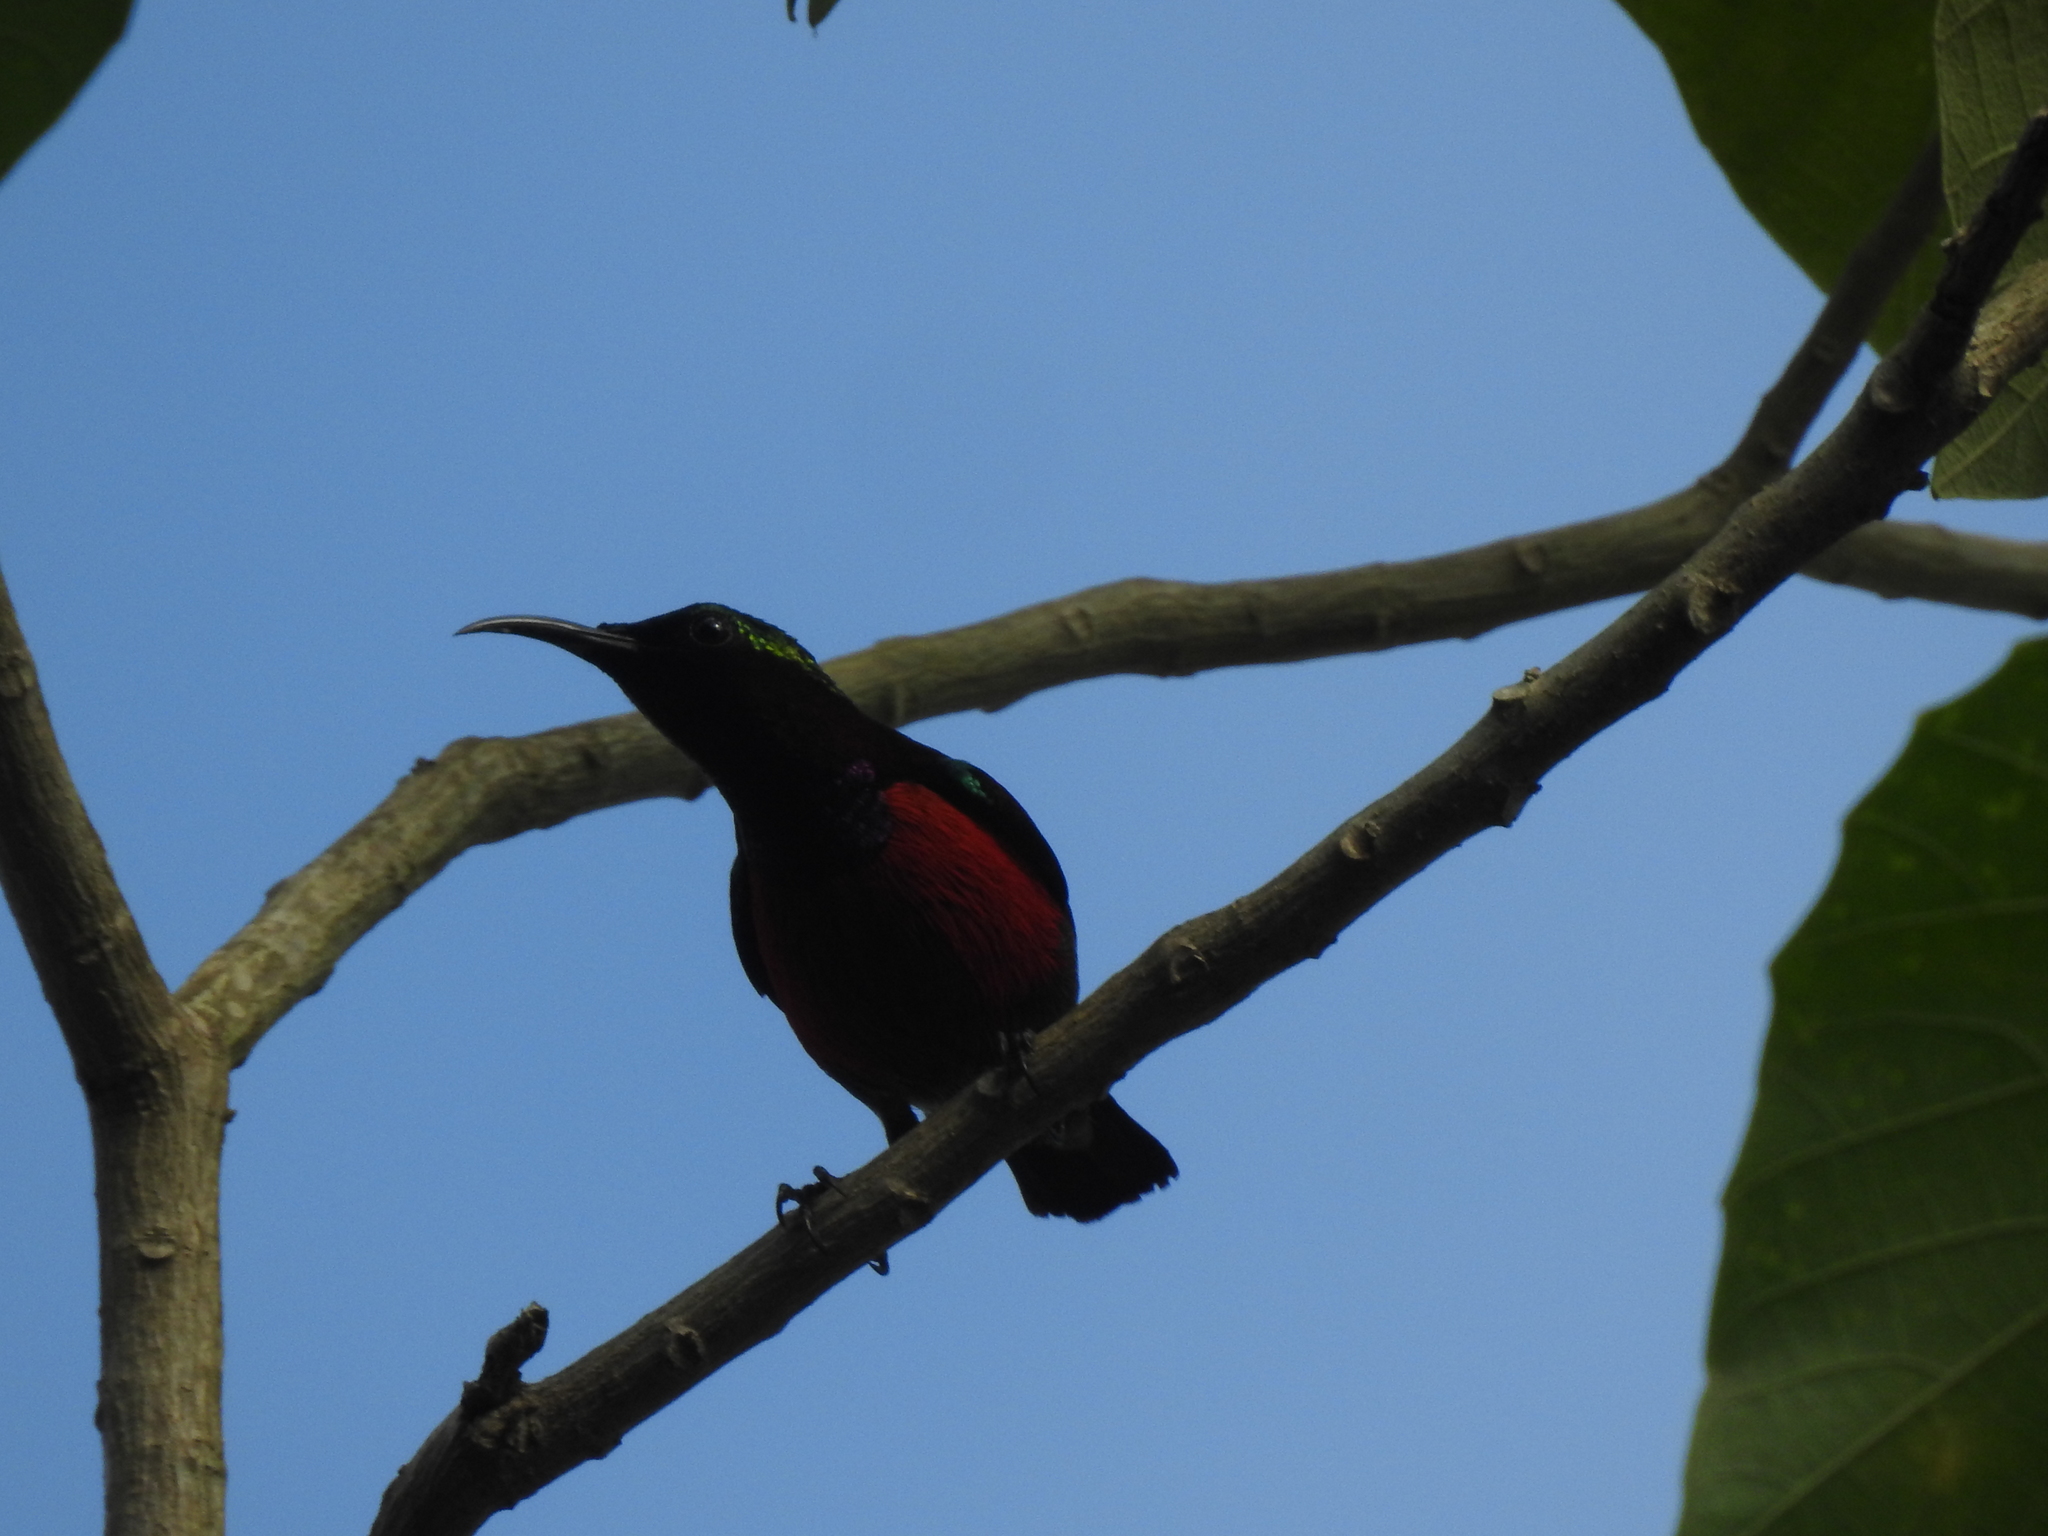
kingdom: Animalia
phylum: Chordata
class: Aves
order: Passeriformes
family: Nectariniidae
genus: Leptocoma
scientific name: Leptocoma sperata
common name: Purple-throated sunbird
